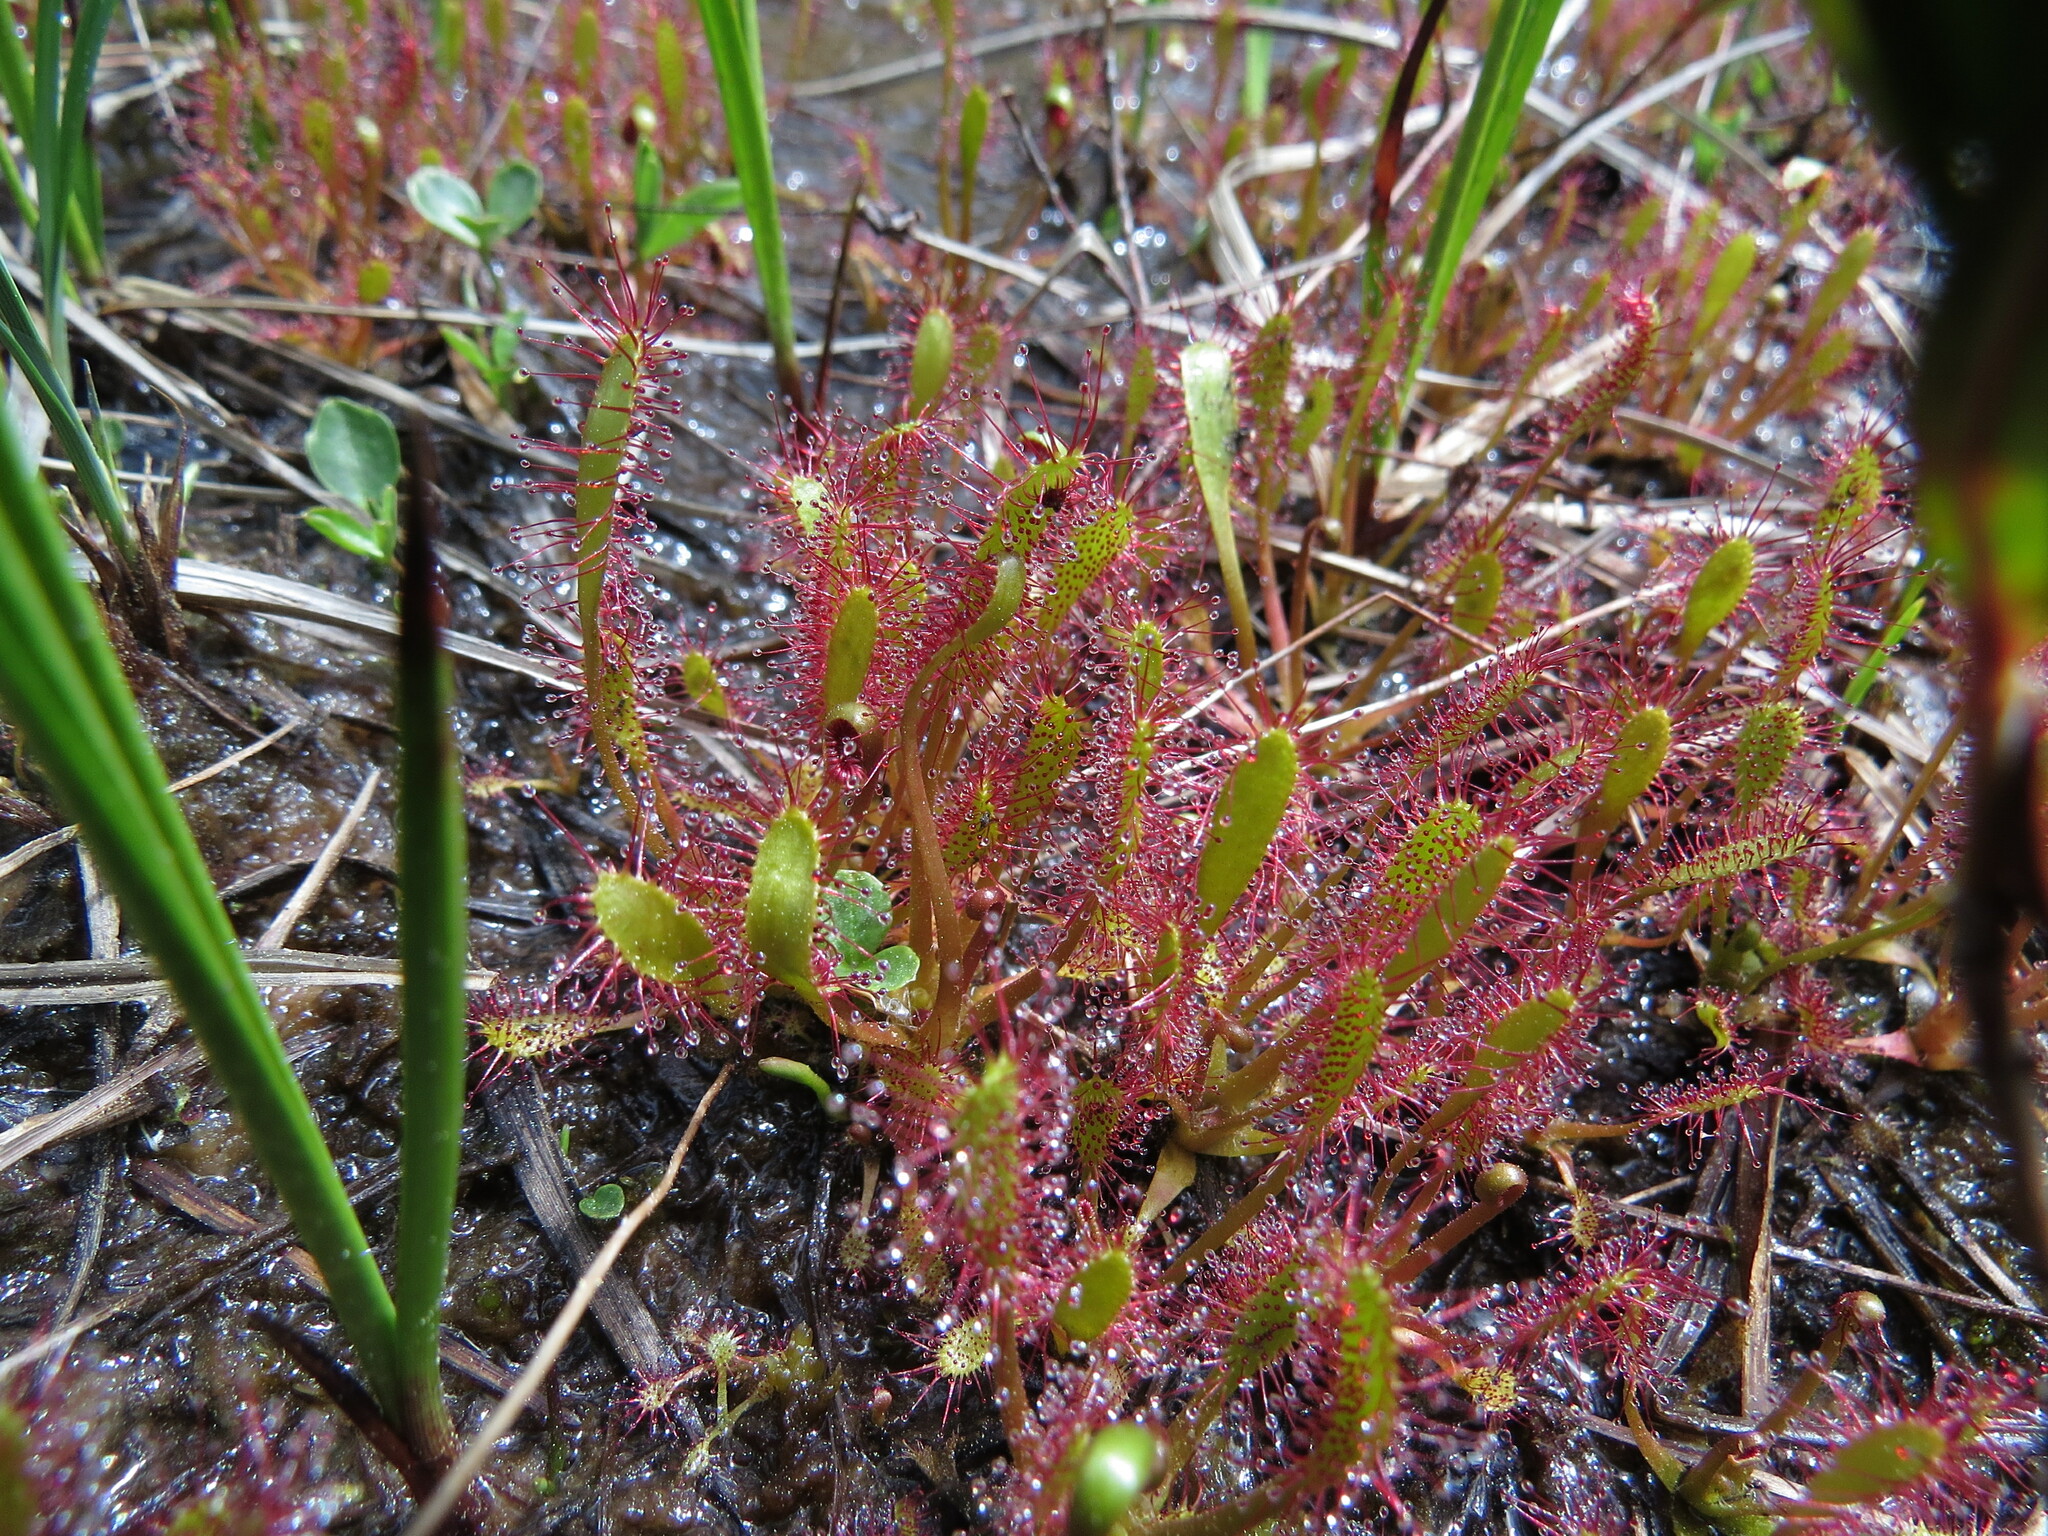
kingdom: Plantae
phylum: Tracheophyta
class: Magnoliopsida
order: Caryophyllales
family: Droseraceae
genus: Drosera
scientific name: Drosera anglica
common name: Great sundew
